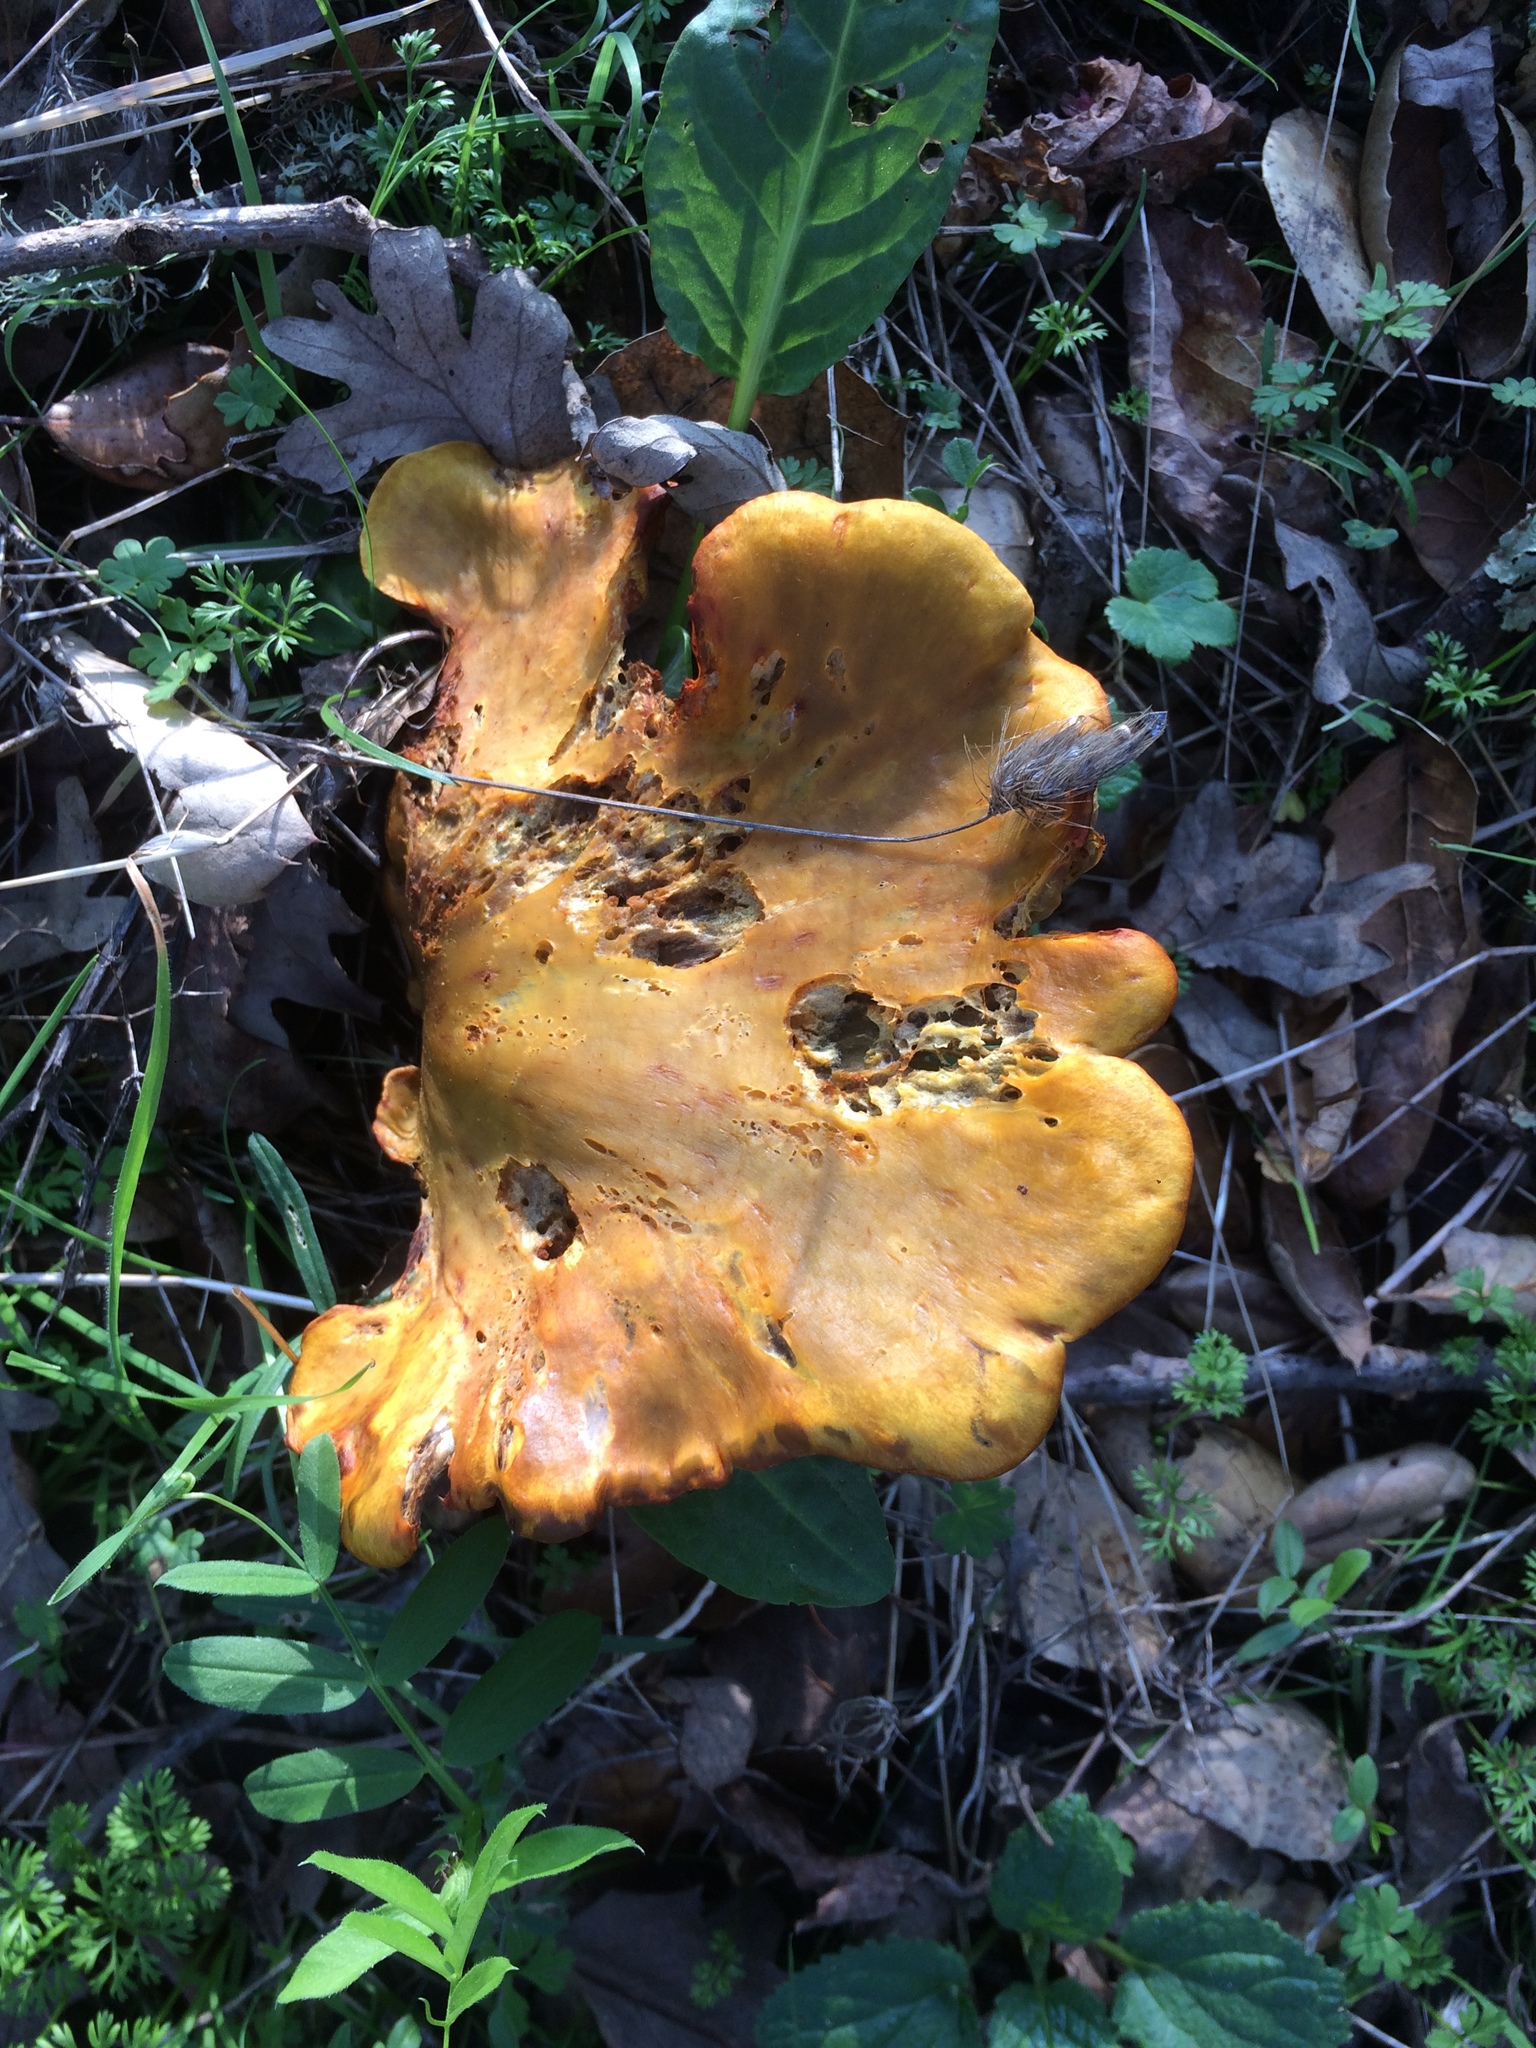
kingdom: Fungi
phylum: Basidiomycota
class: Agaricomycetes
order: Agaricales
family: Omphalotaceae
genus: Omphalotus
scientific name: Omphalotus olivascens
